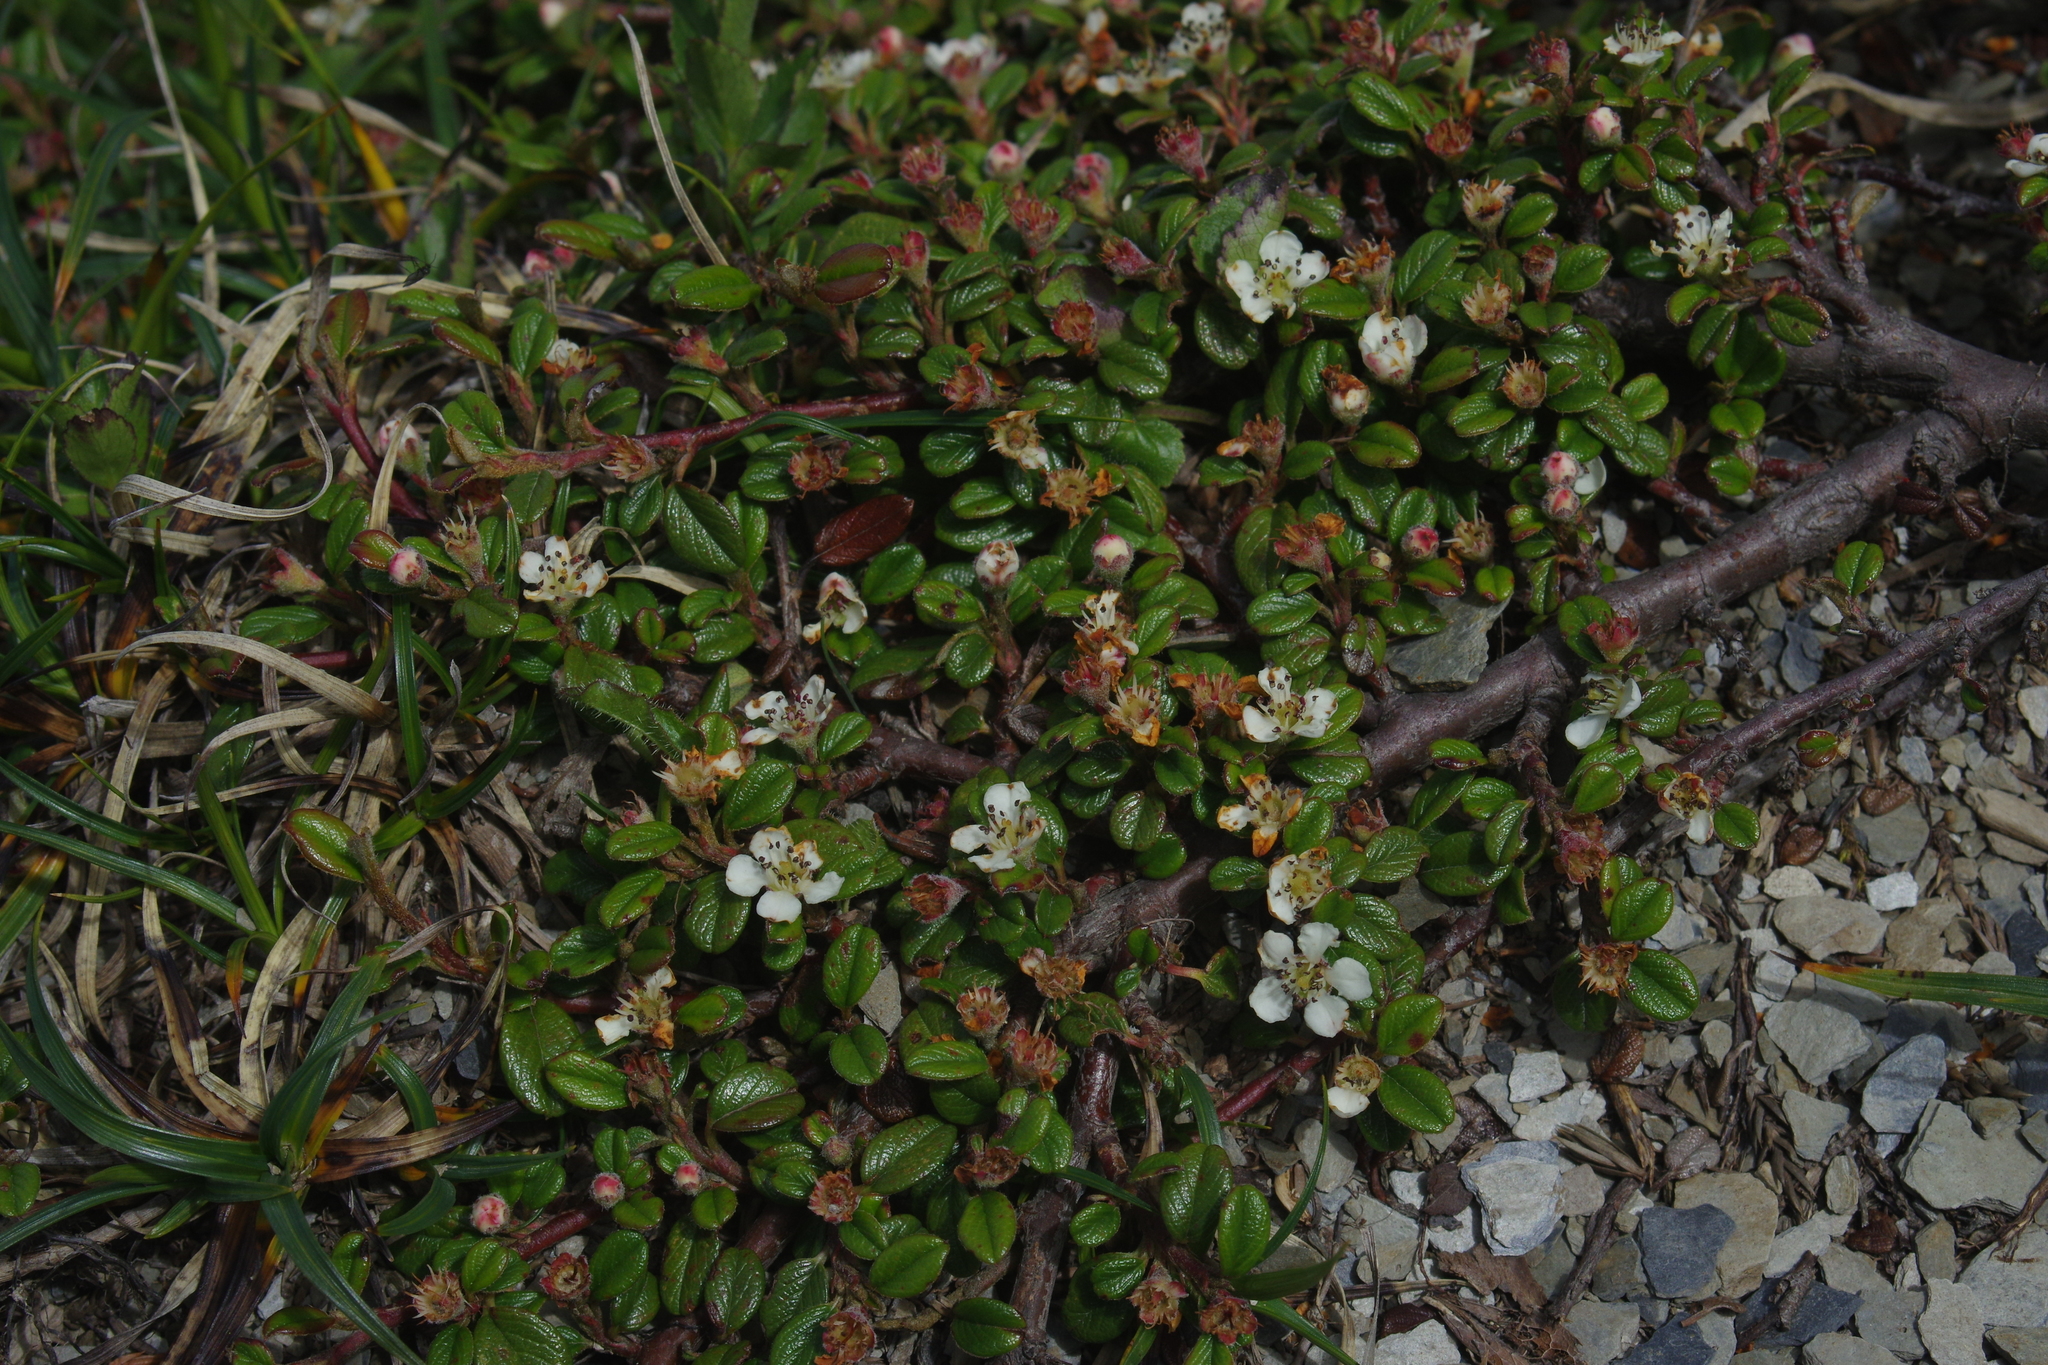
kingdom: Plantae
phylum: Tracheophyta
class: Magnoliopsida
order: Rosales
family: Rosaceae
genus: Cotoneaster
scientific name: Cotoneaster morrisonensis
